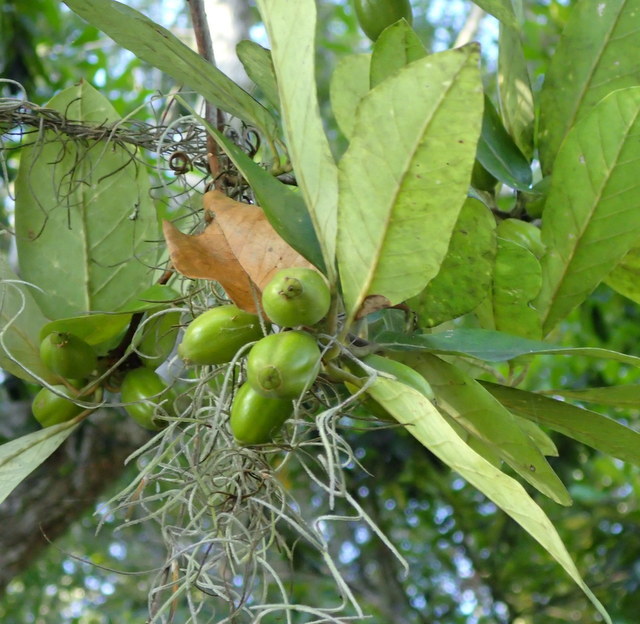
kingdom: Plantae
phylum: Tracheophyta
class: Magnoliopsida
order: Cornales
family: Nyssaceae
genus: Nyssa
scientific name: Nyssa ogeche
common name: Ogeechee tupelo
